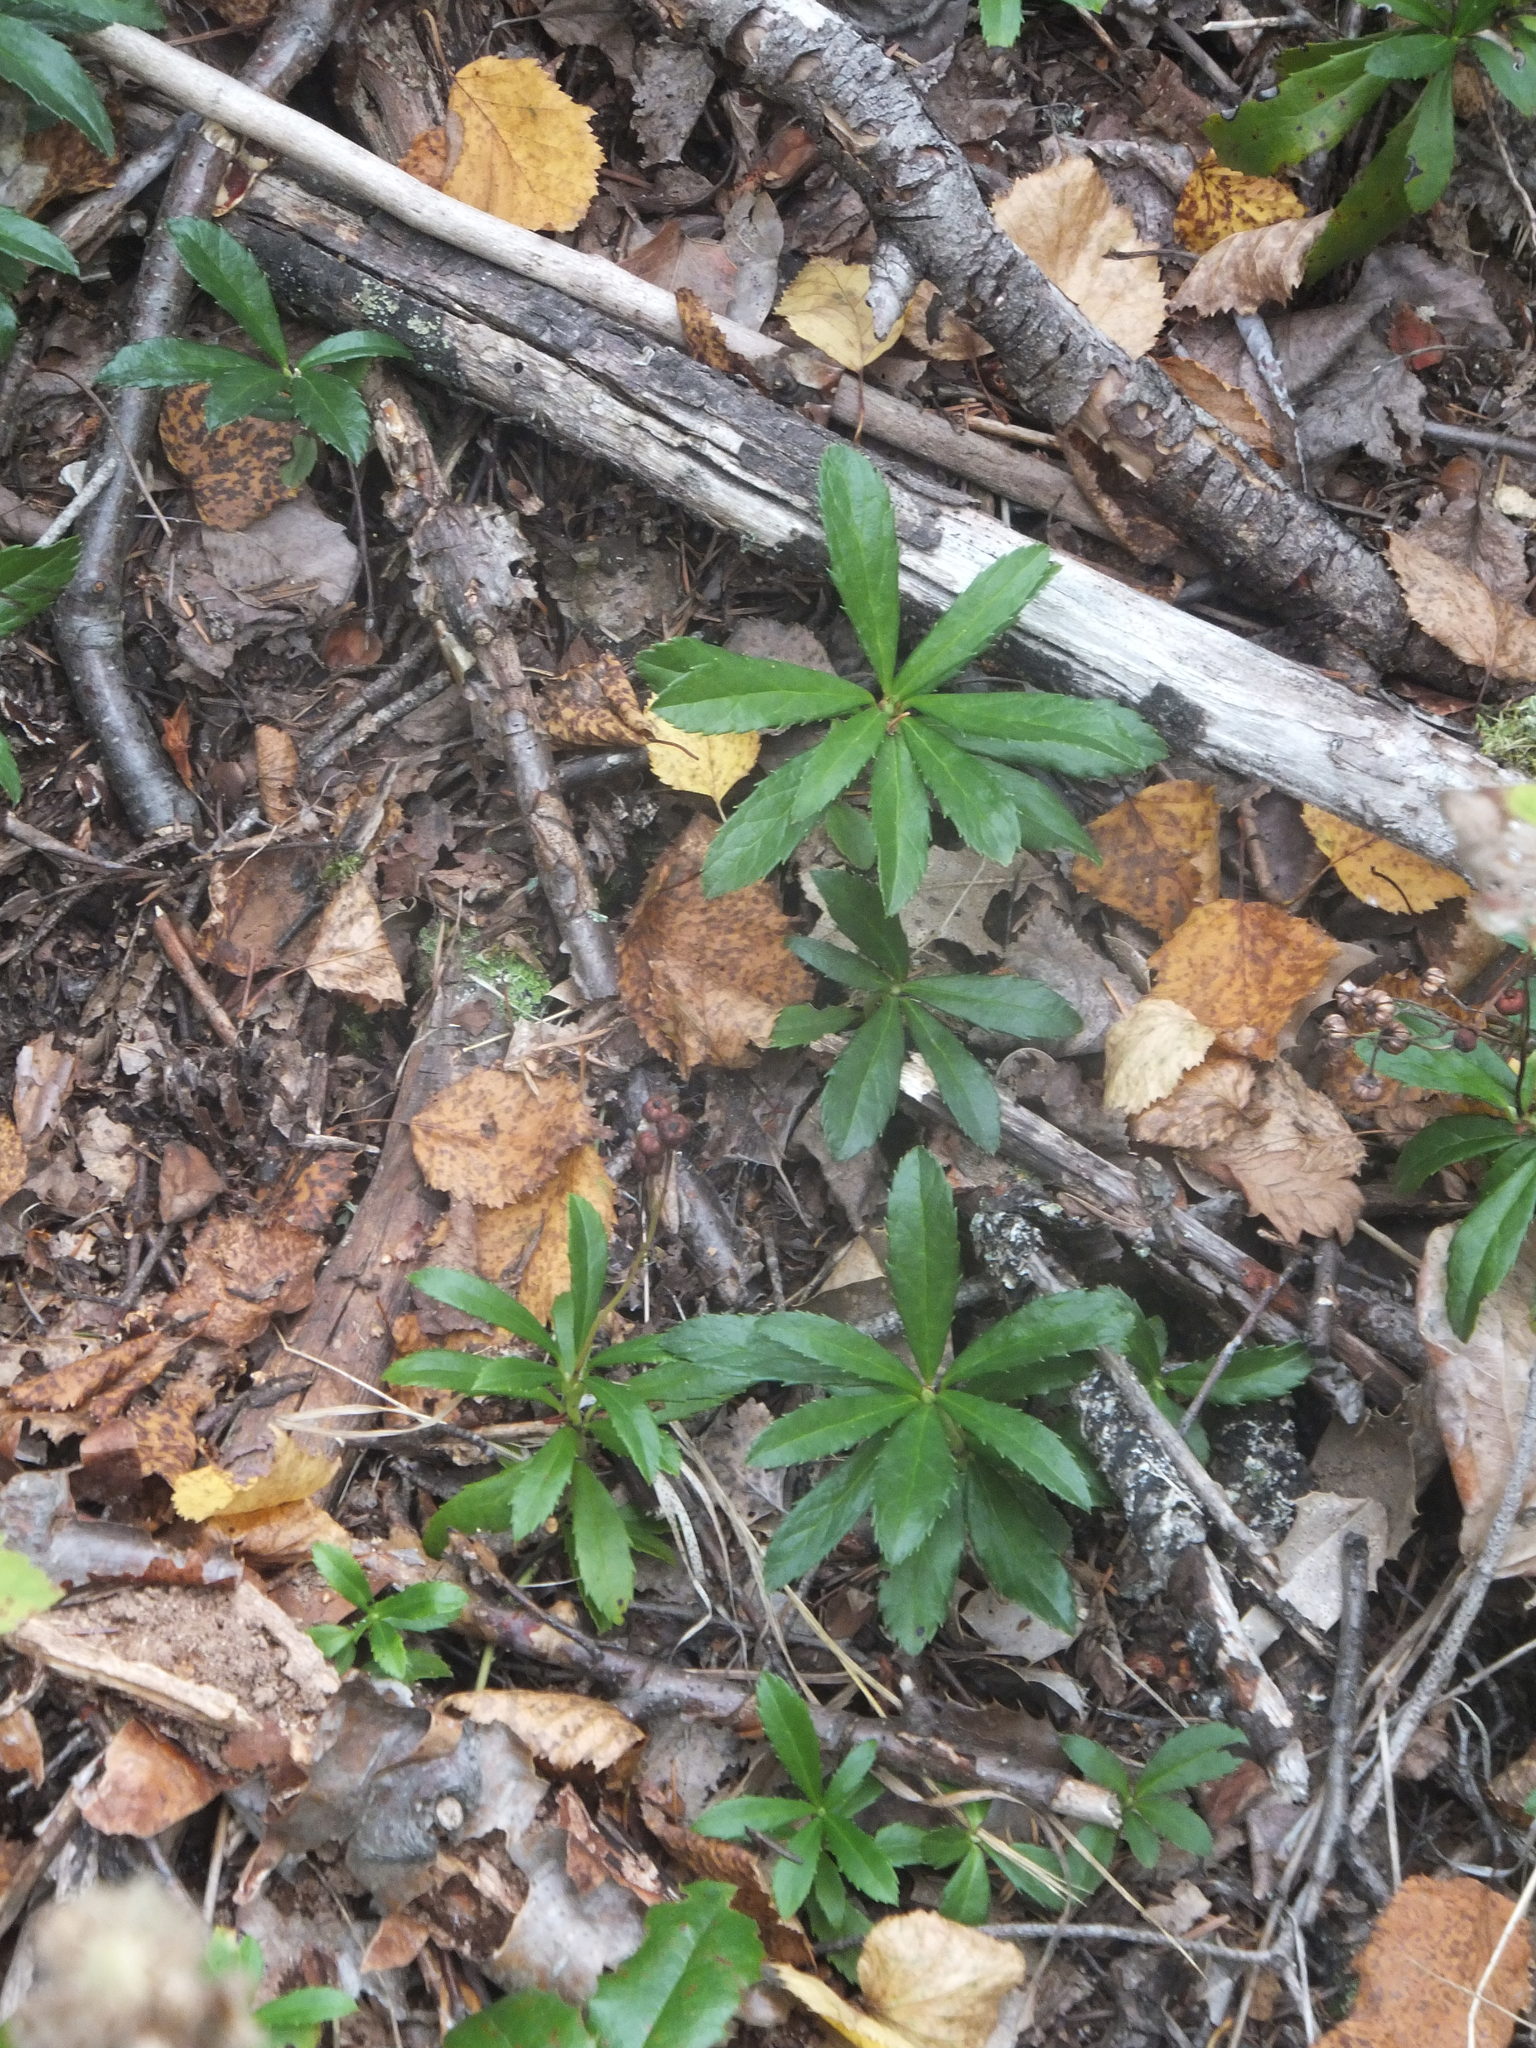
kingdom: Plantae
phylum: Tracheophyta
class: Magnoliopsida
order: Ericales
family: Ericaceae
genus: Chimaphila
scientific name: Chimaphila umbellata
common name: Pipsissewa
